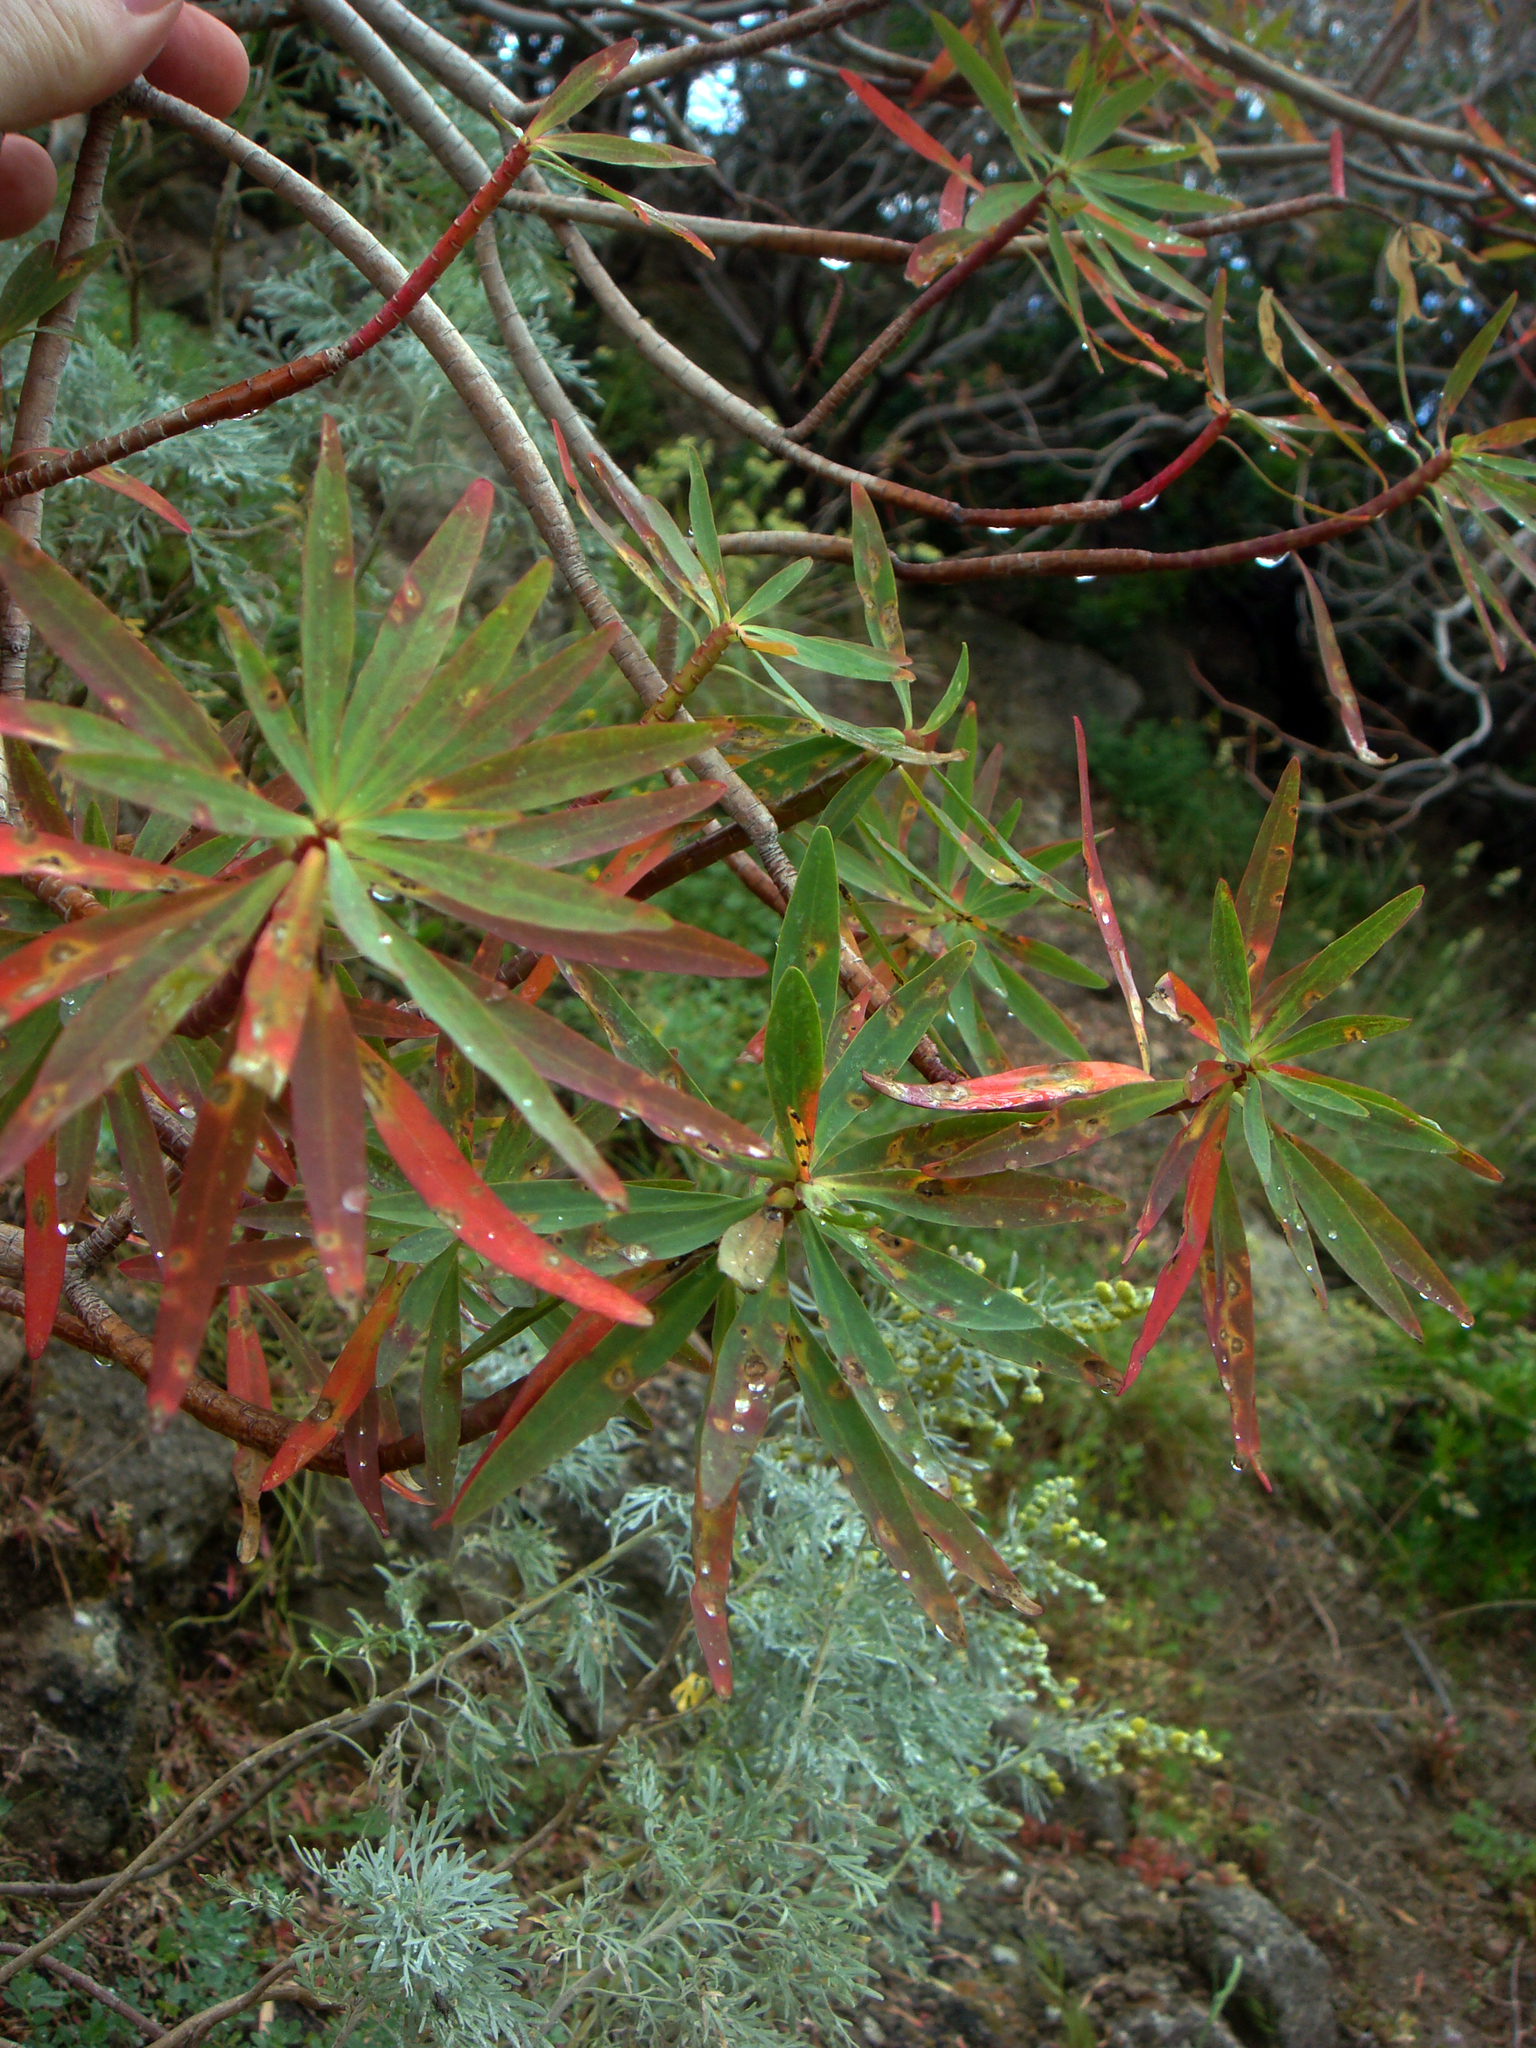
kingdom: Plantae
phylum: Tracheophyta
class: Magnoliopsida
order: Malpighiales
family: Euphorbiaceae
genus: Euphorbia
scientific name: Euphorbia dendroides
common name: Tree spurge
